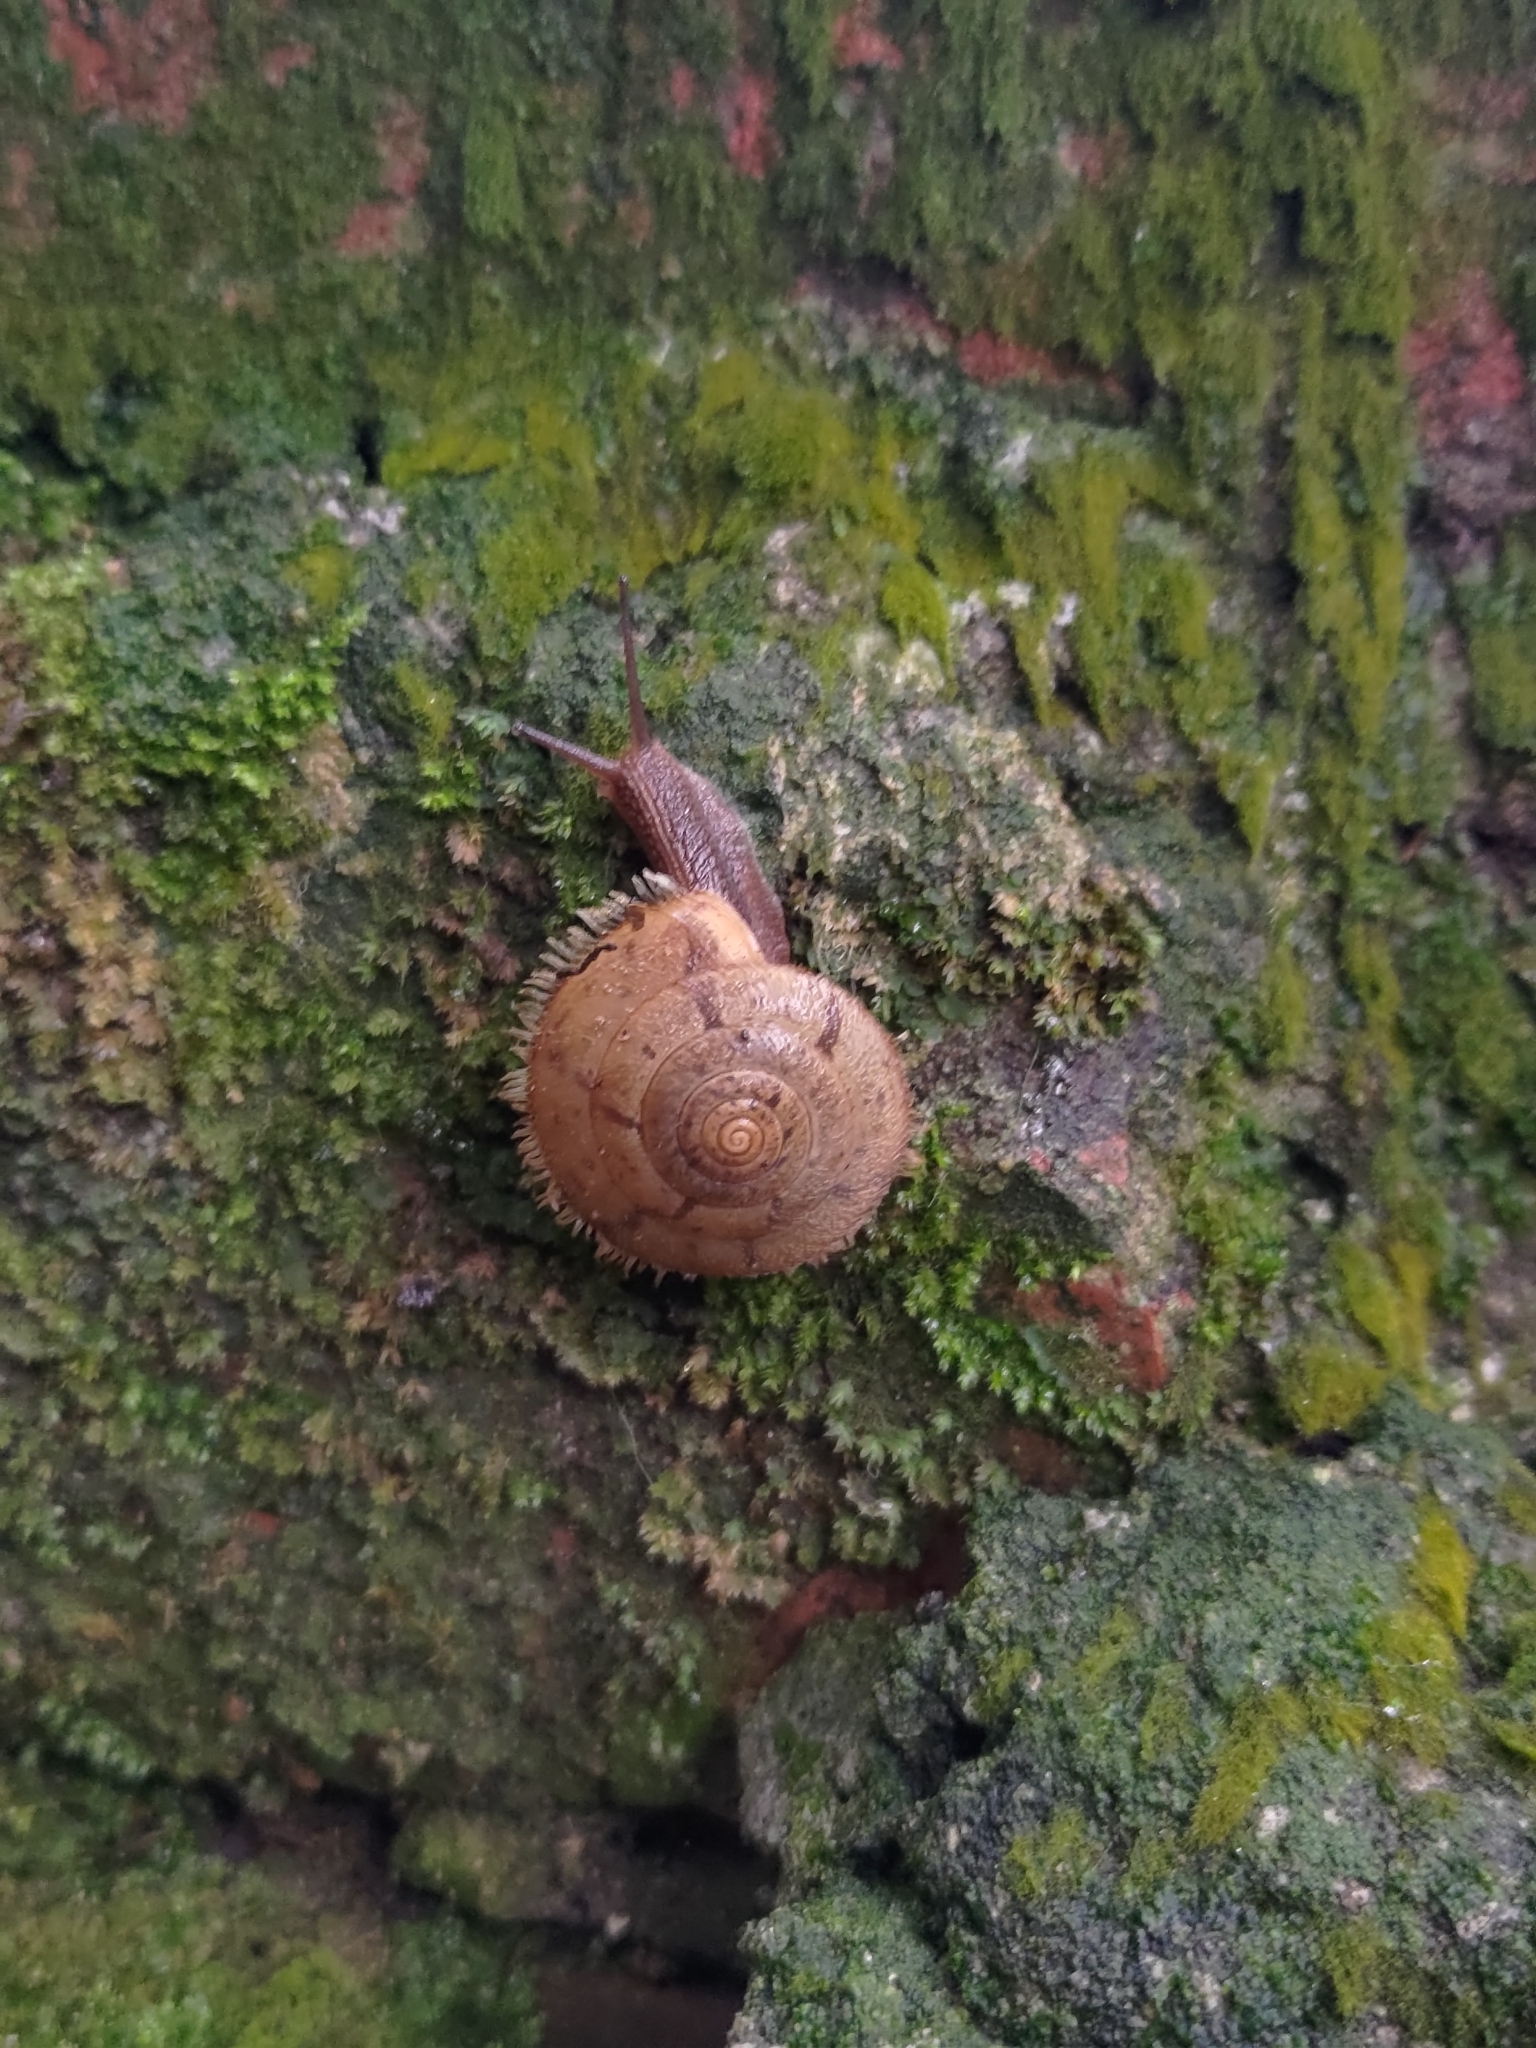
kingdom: Animalia
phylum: Mollusca
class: Gastropoda
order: Stylommatophora
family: Camaenidae
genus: Plectotropis
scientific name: Plectotropis mackensii
